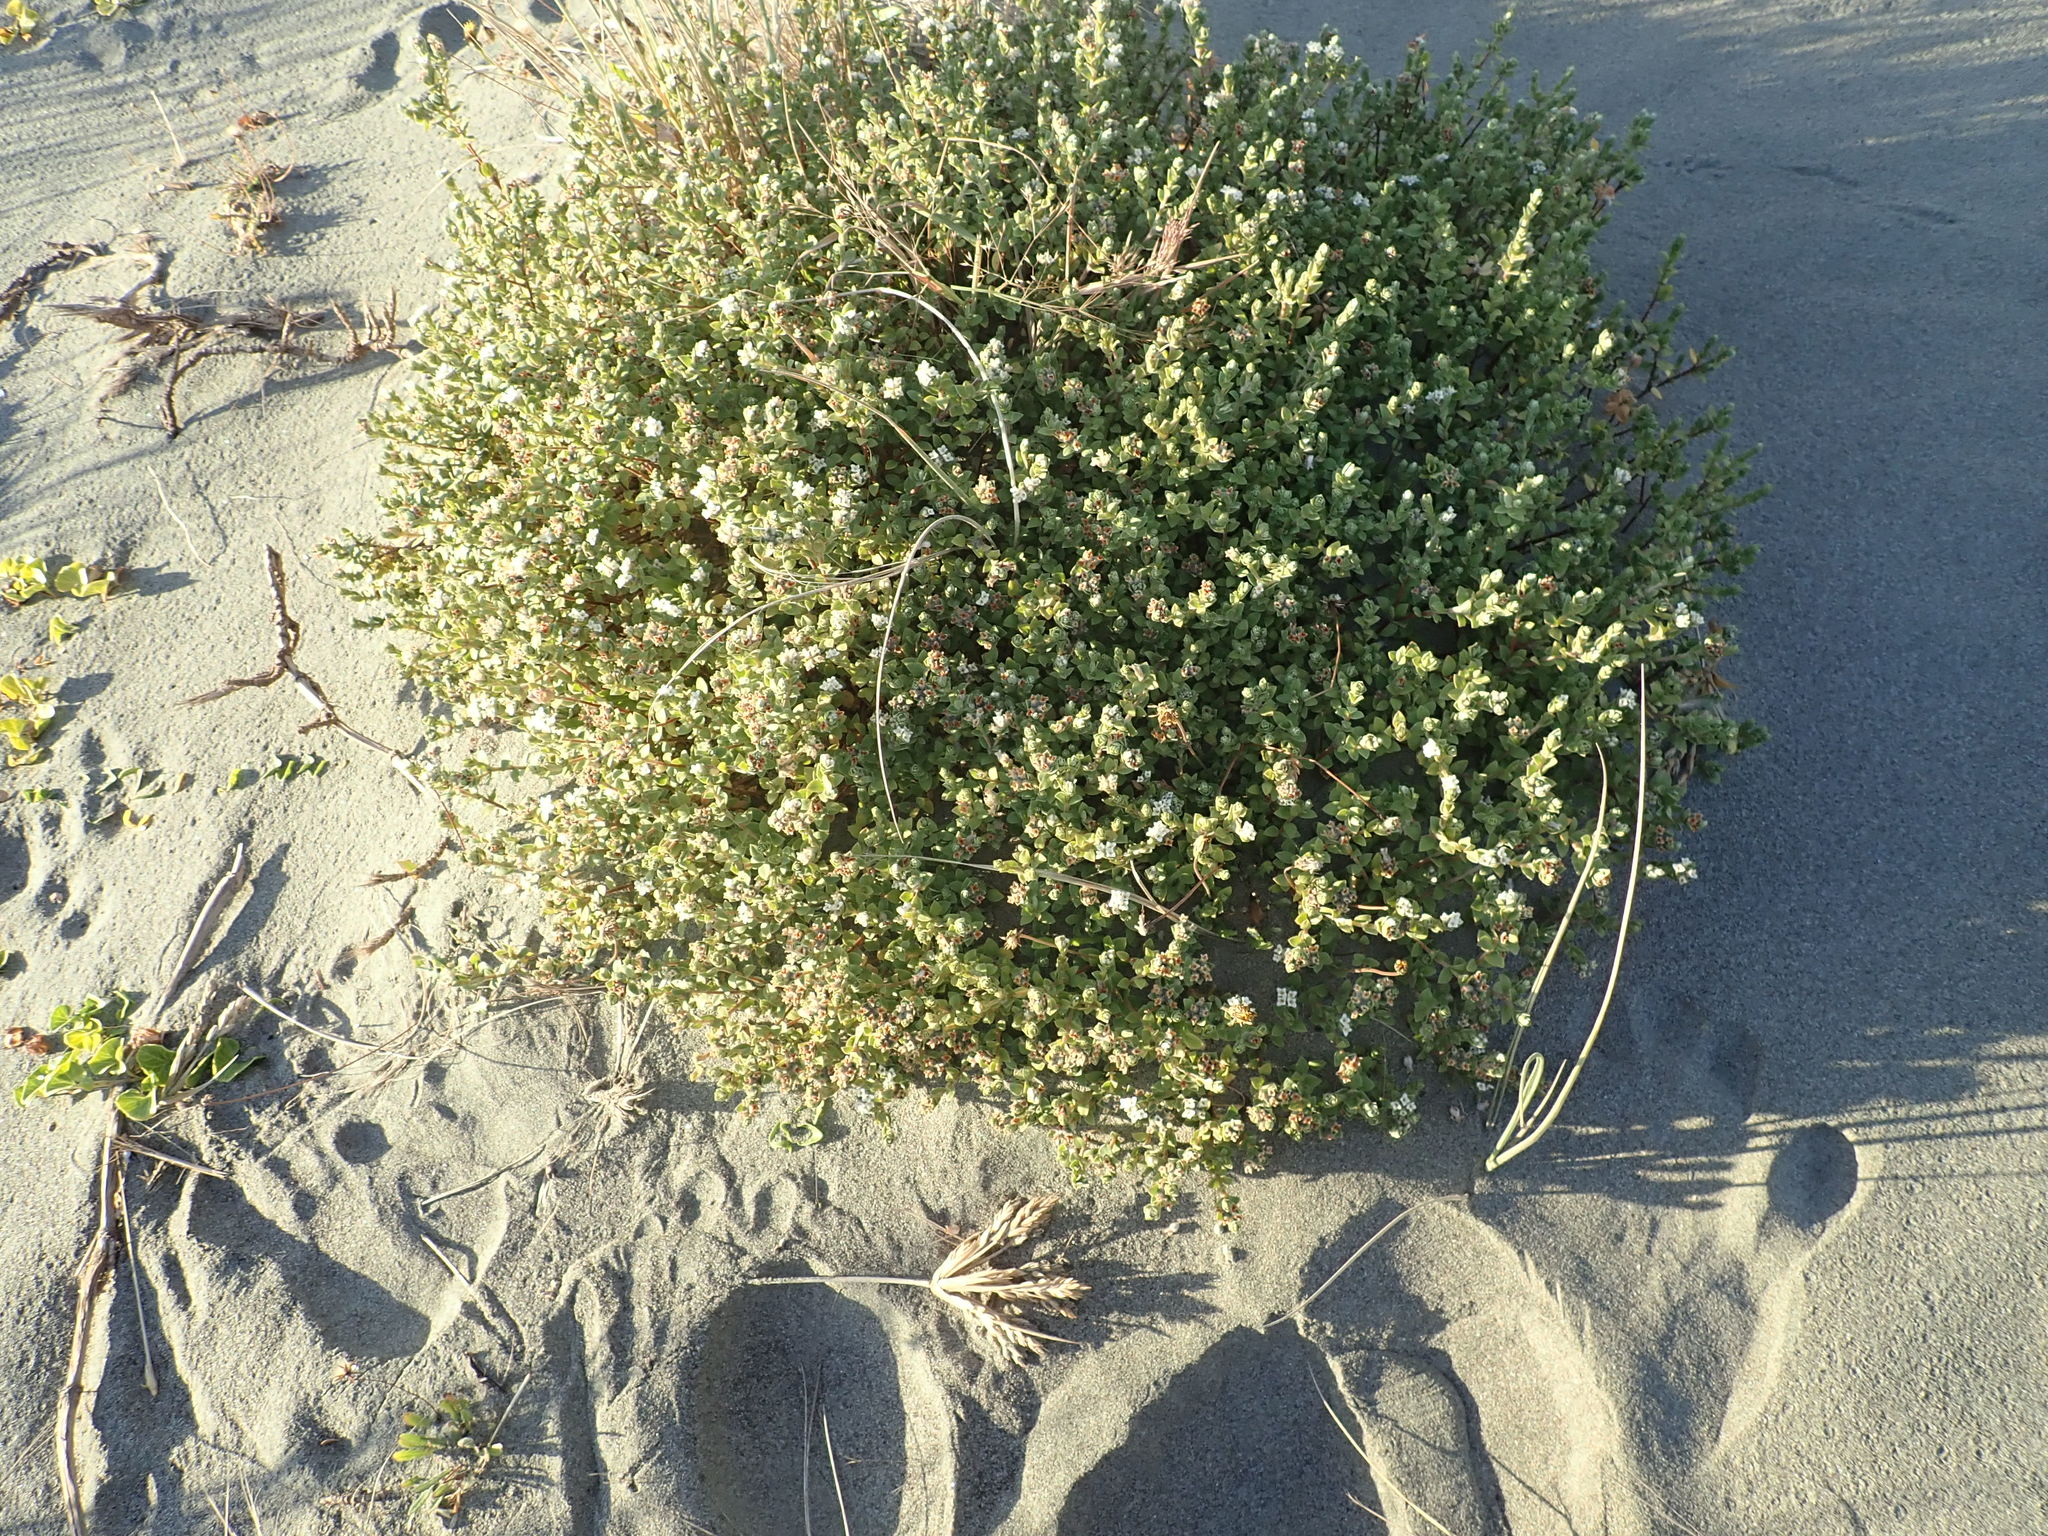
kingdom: Plantae
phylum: Tracheophyta
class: Magnoliopsida
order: Malvales
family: Thymelaeaceae
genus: Pimelea
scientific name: Pimelea villosa
